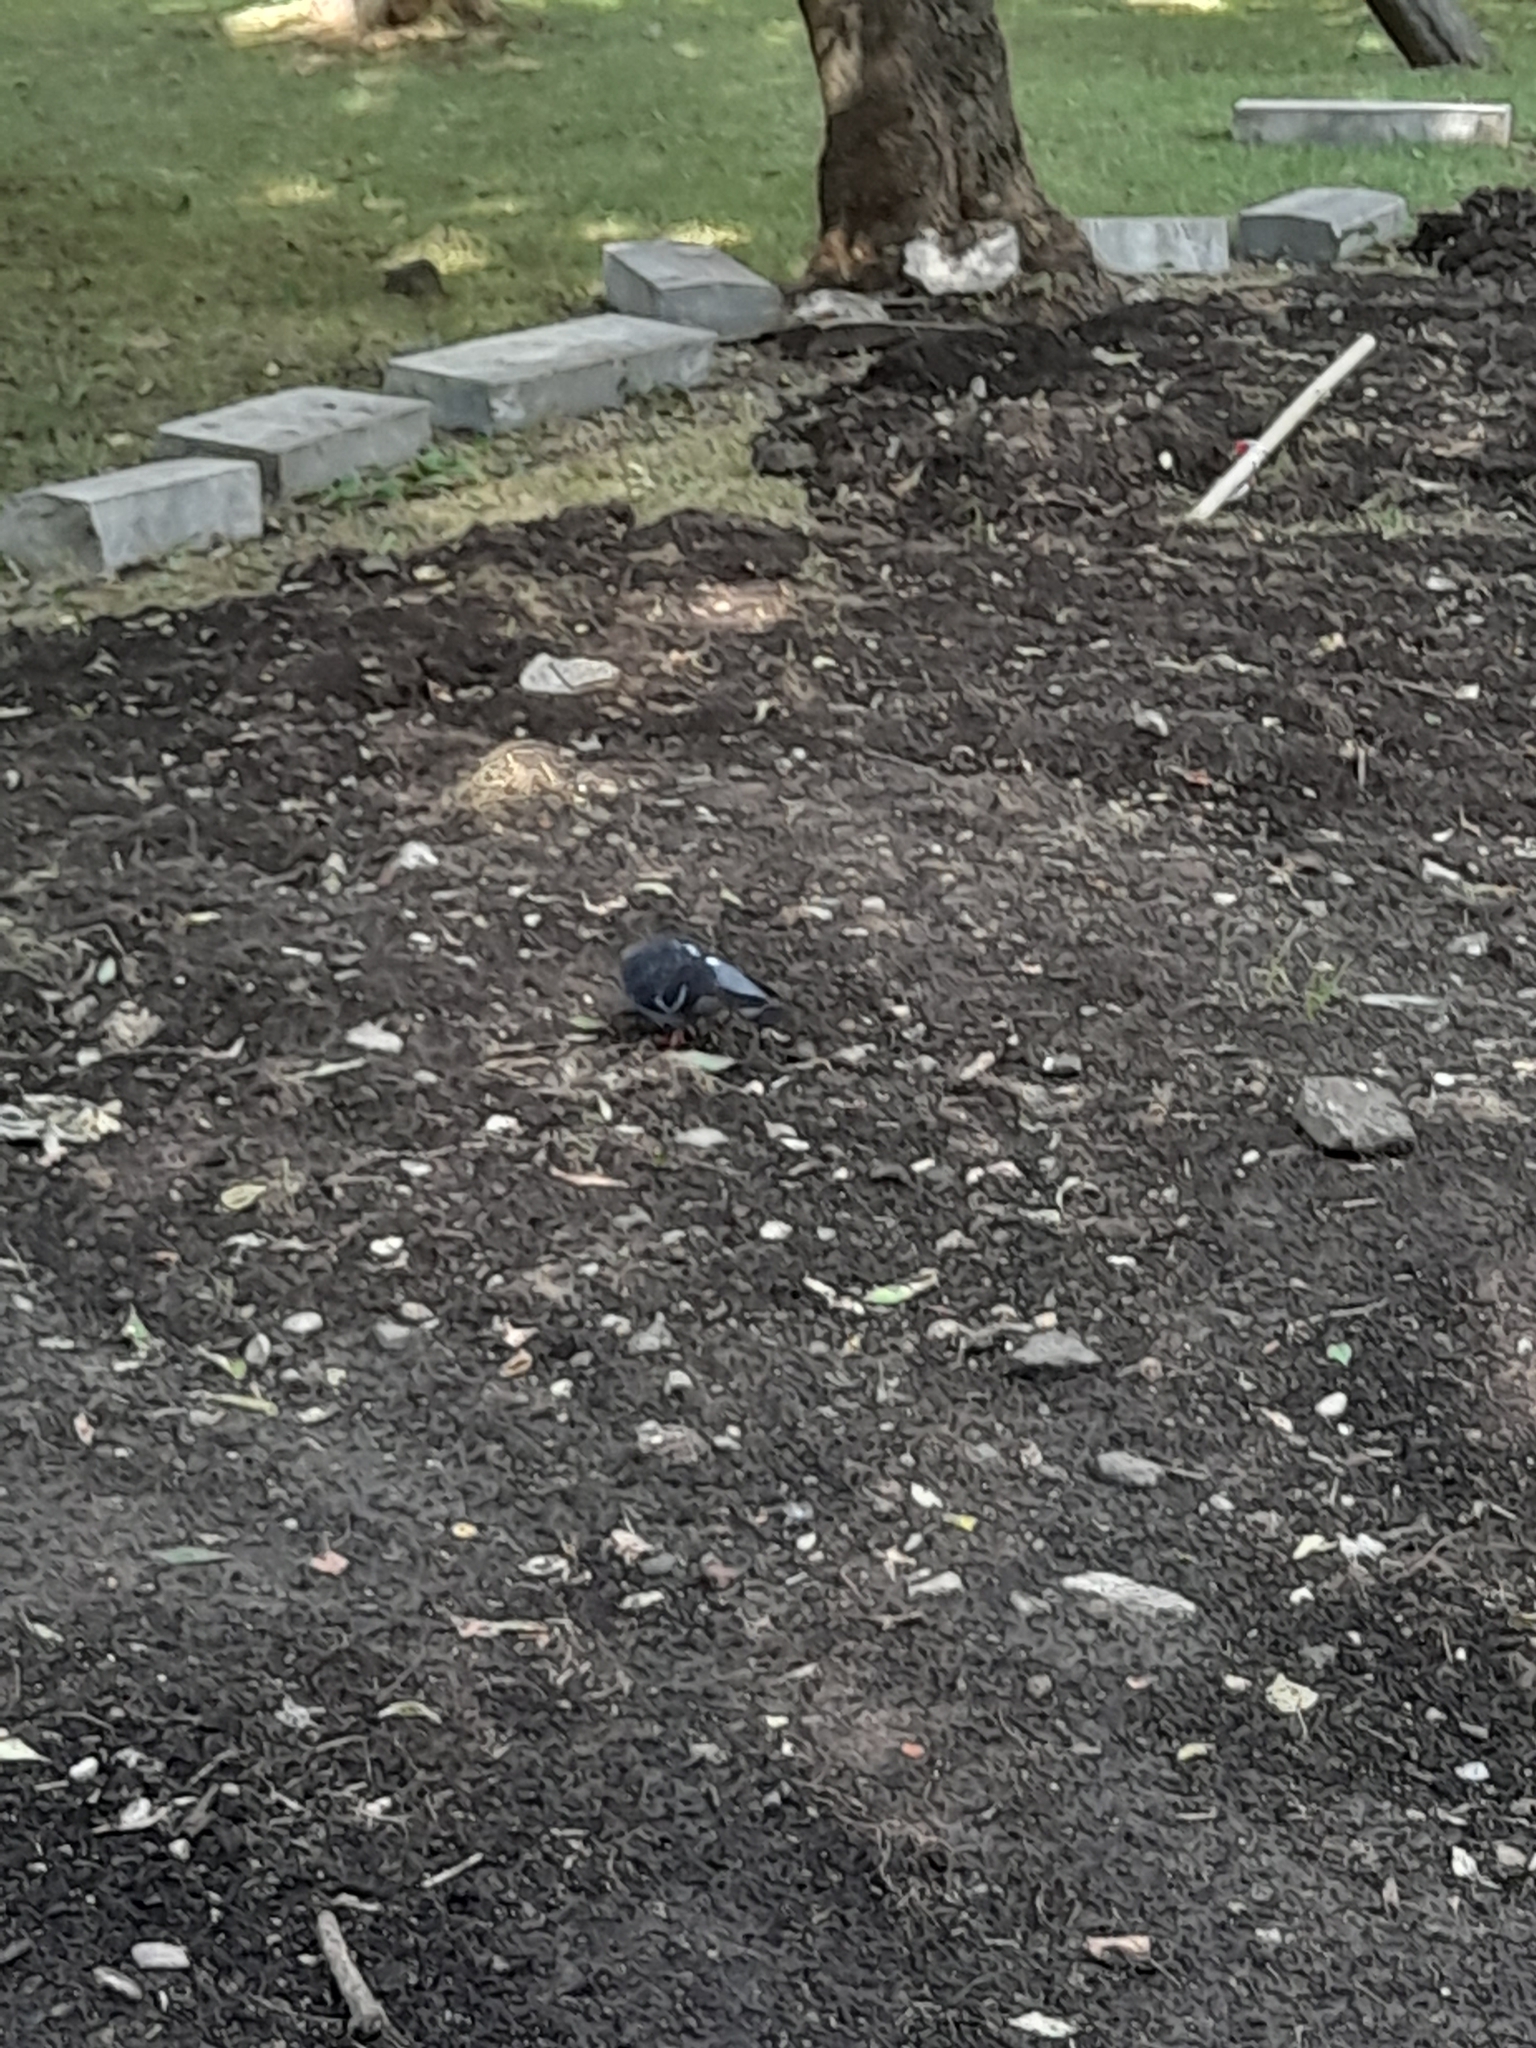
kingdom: Animalia
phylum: Chordata
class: Aves
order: Columbiformes
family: Columbidae
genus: Columba
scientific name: Columba livia
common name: Rock pigeon
